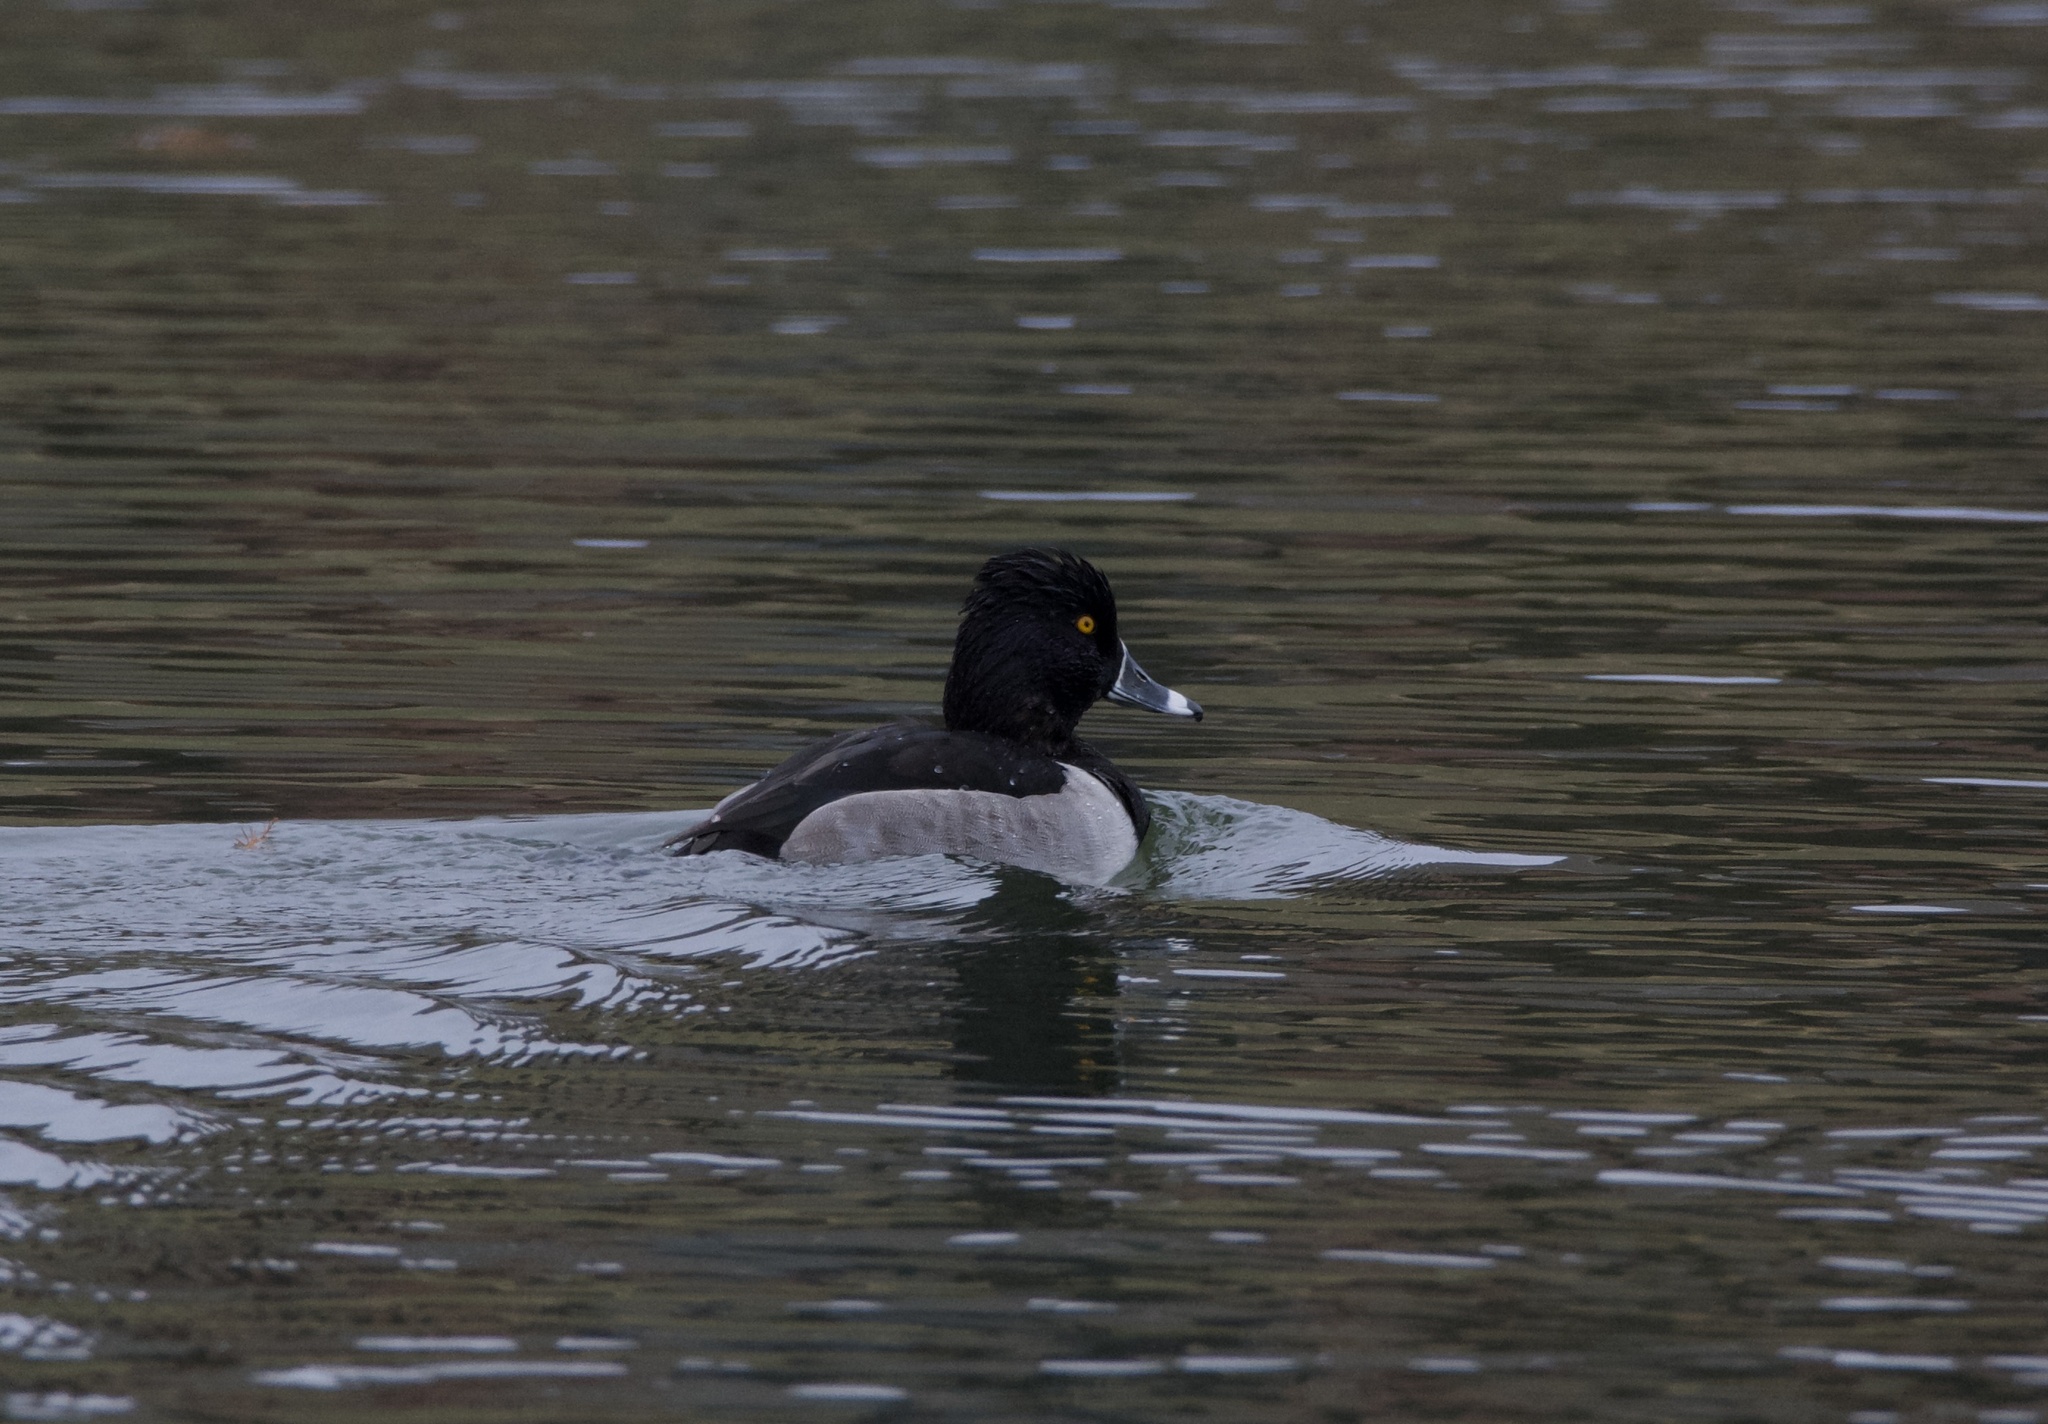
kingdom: Animalia
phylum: Chordata
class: Aves
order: Anseriformes
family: Anatidae
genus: Aythya
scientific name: Aythya collaris
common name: Ring-necked duck
